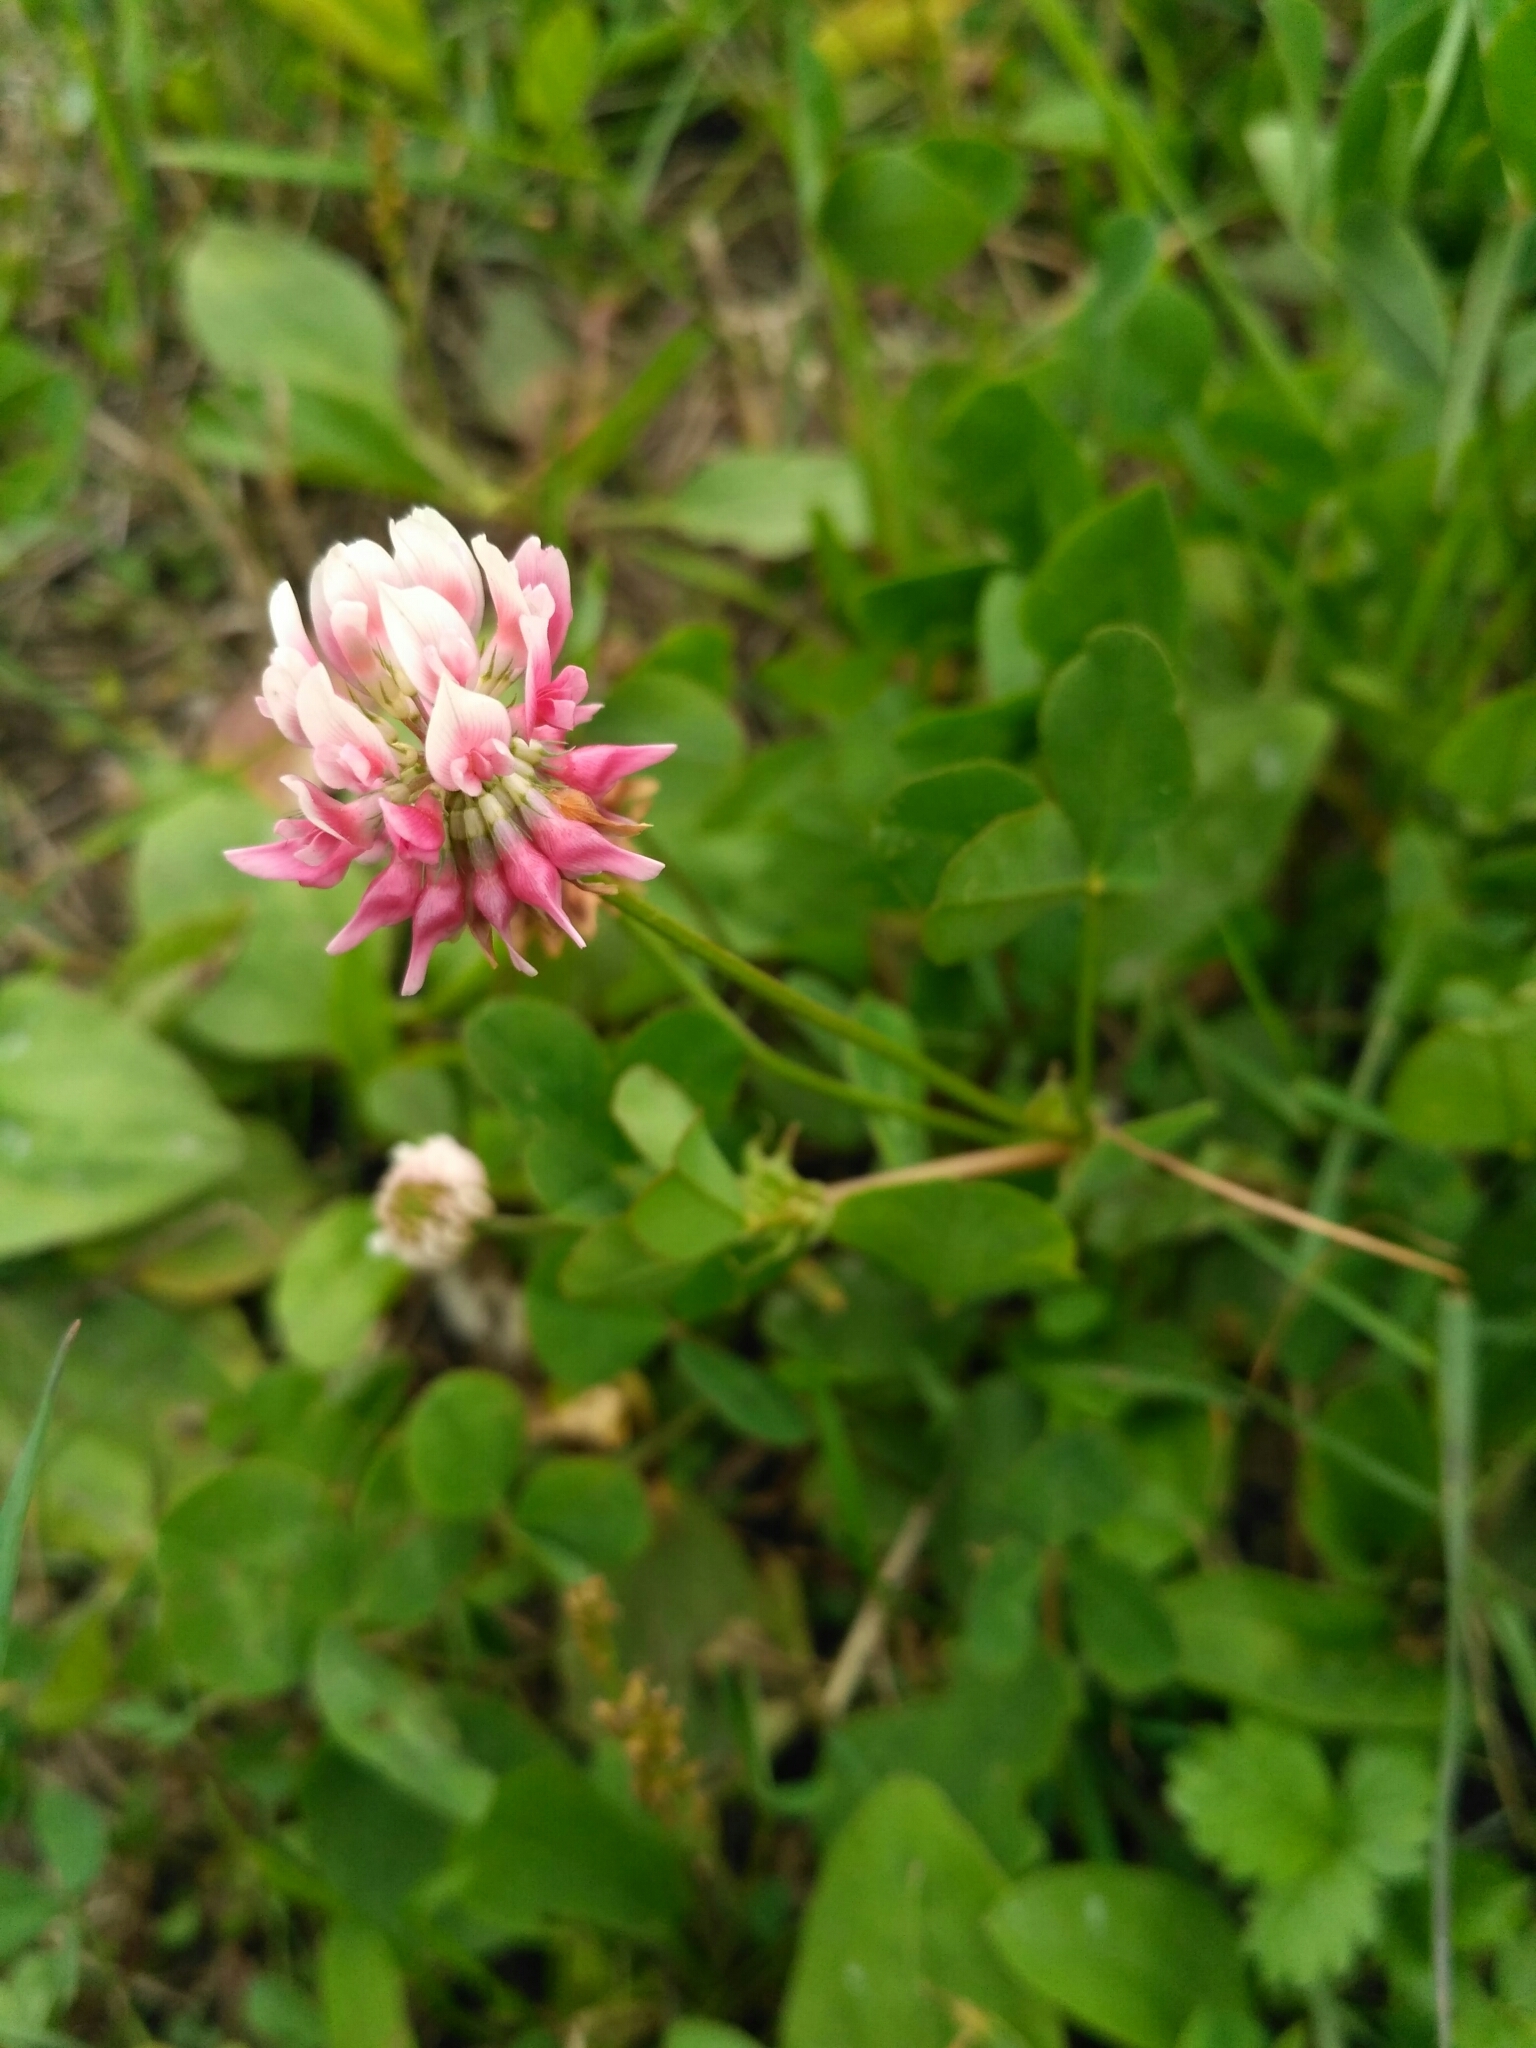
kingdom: Plantae
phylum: Tracheophyta
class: Magnoliopsida
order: Fabales
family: Fabaceae
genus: Trifolium
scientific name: Trifolium hybridum
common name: Alsike clover
